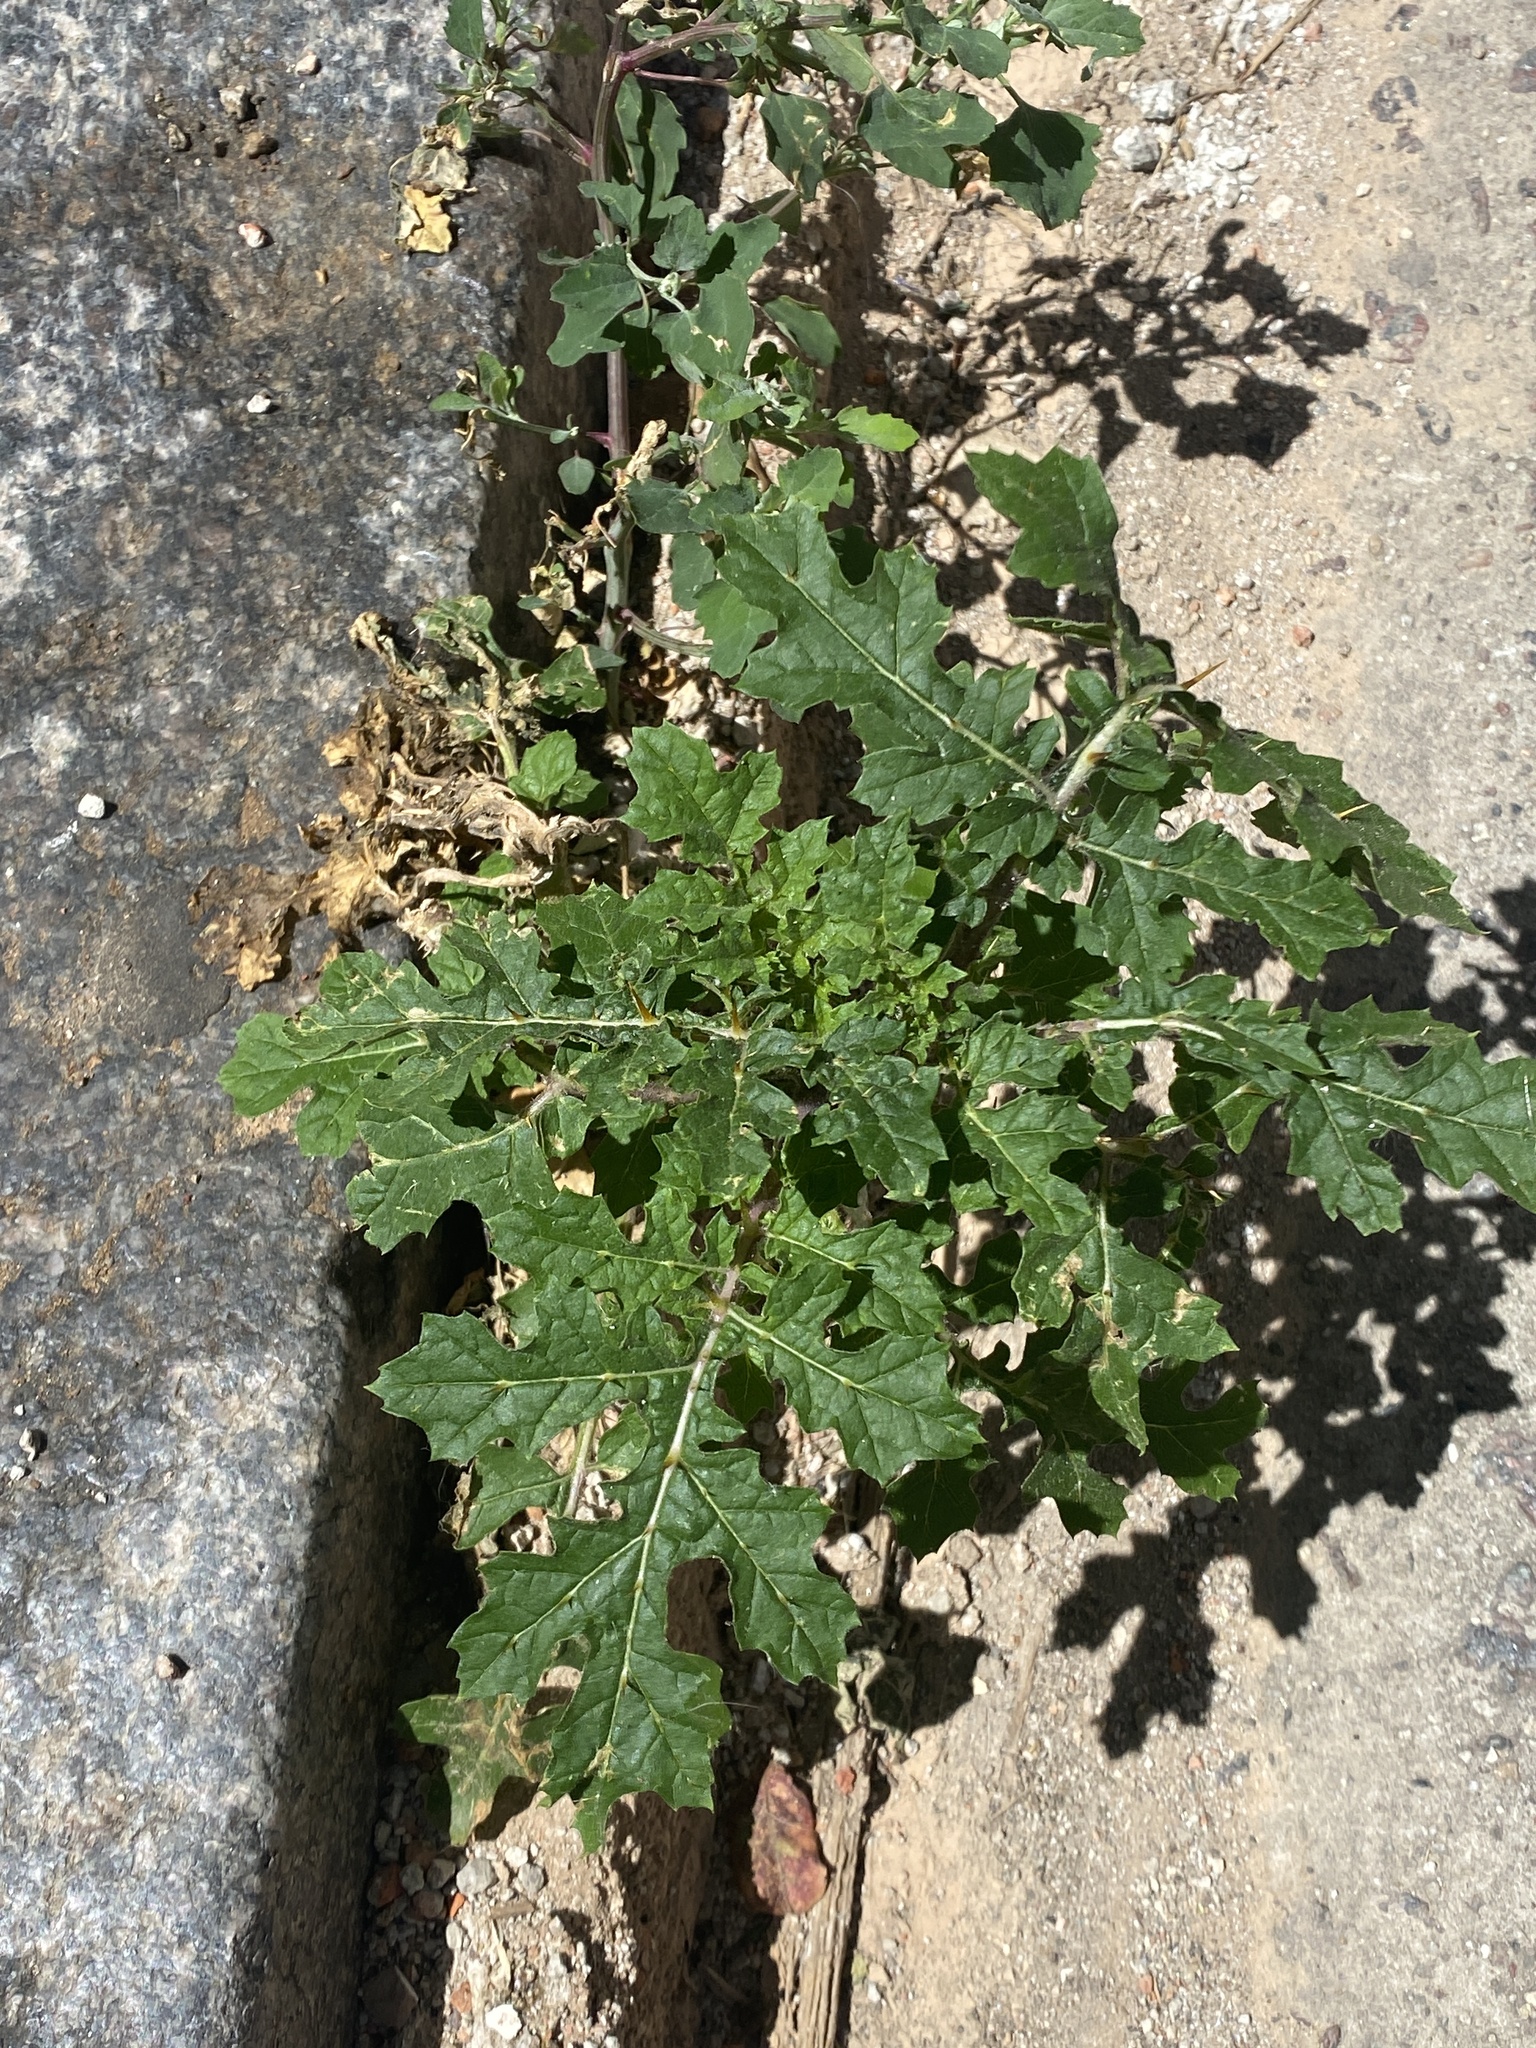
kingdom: Plantae
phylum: Tracheophyta
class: Magnoliopsida
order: Solanales
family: Solanaceae
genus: Solanum
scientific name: Solanum sisymbriifolium
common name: Red buffalo-bur
